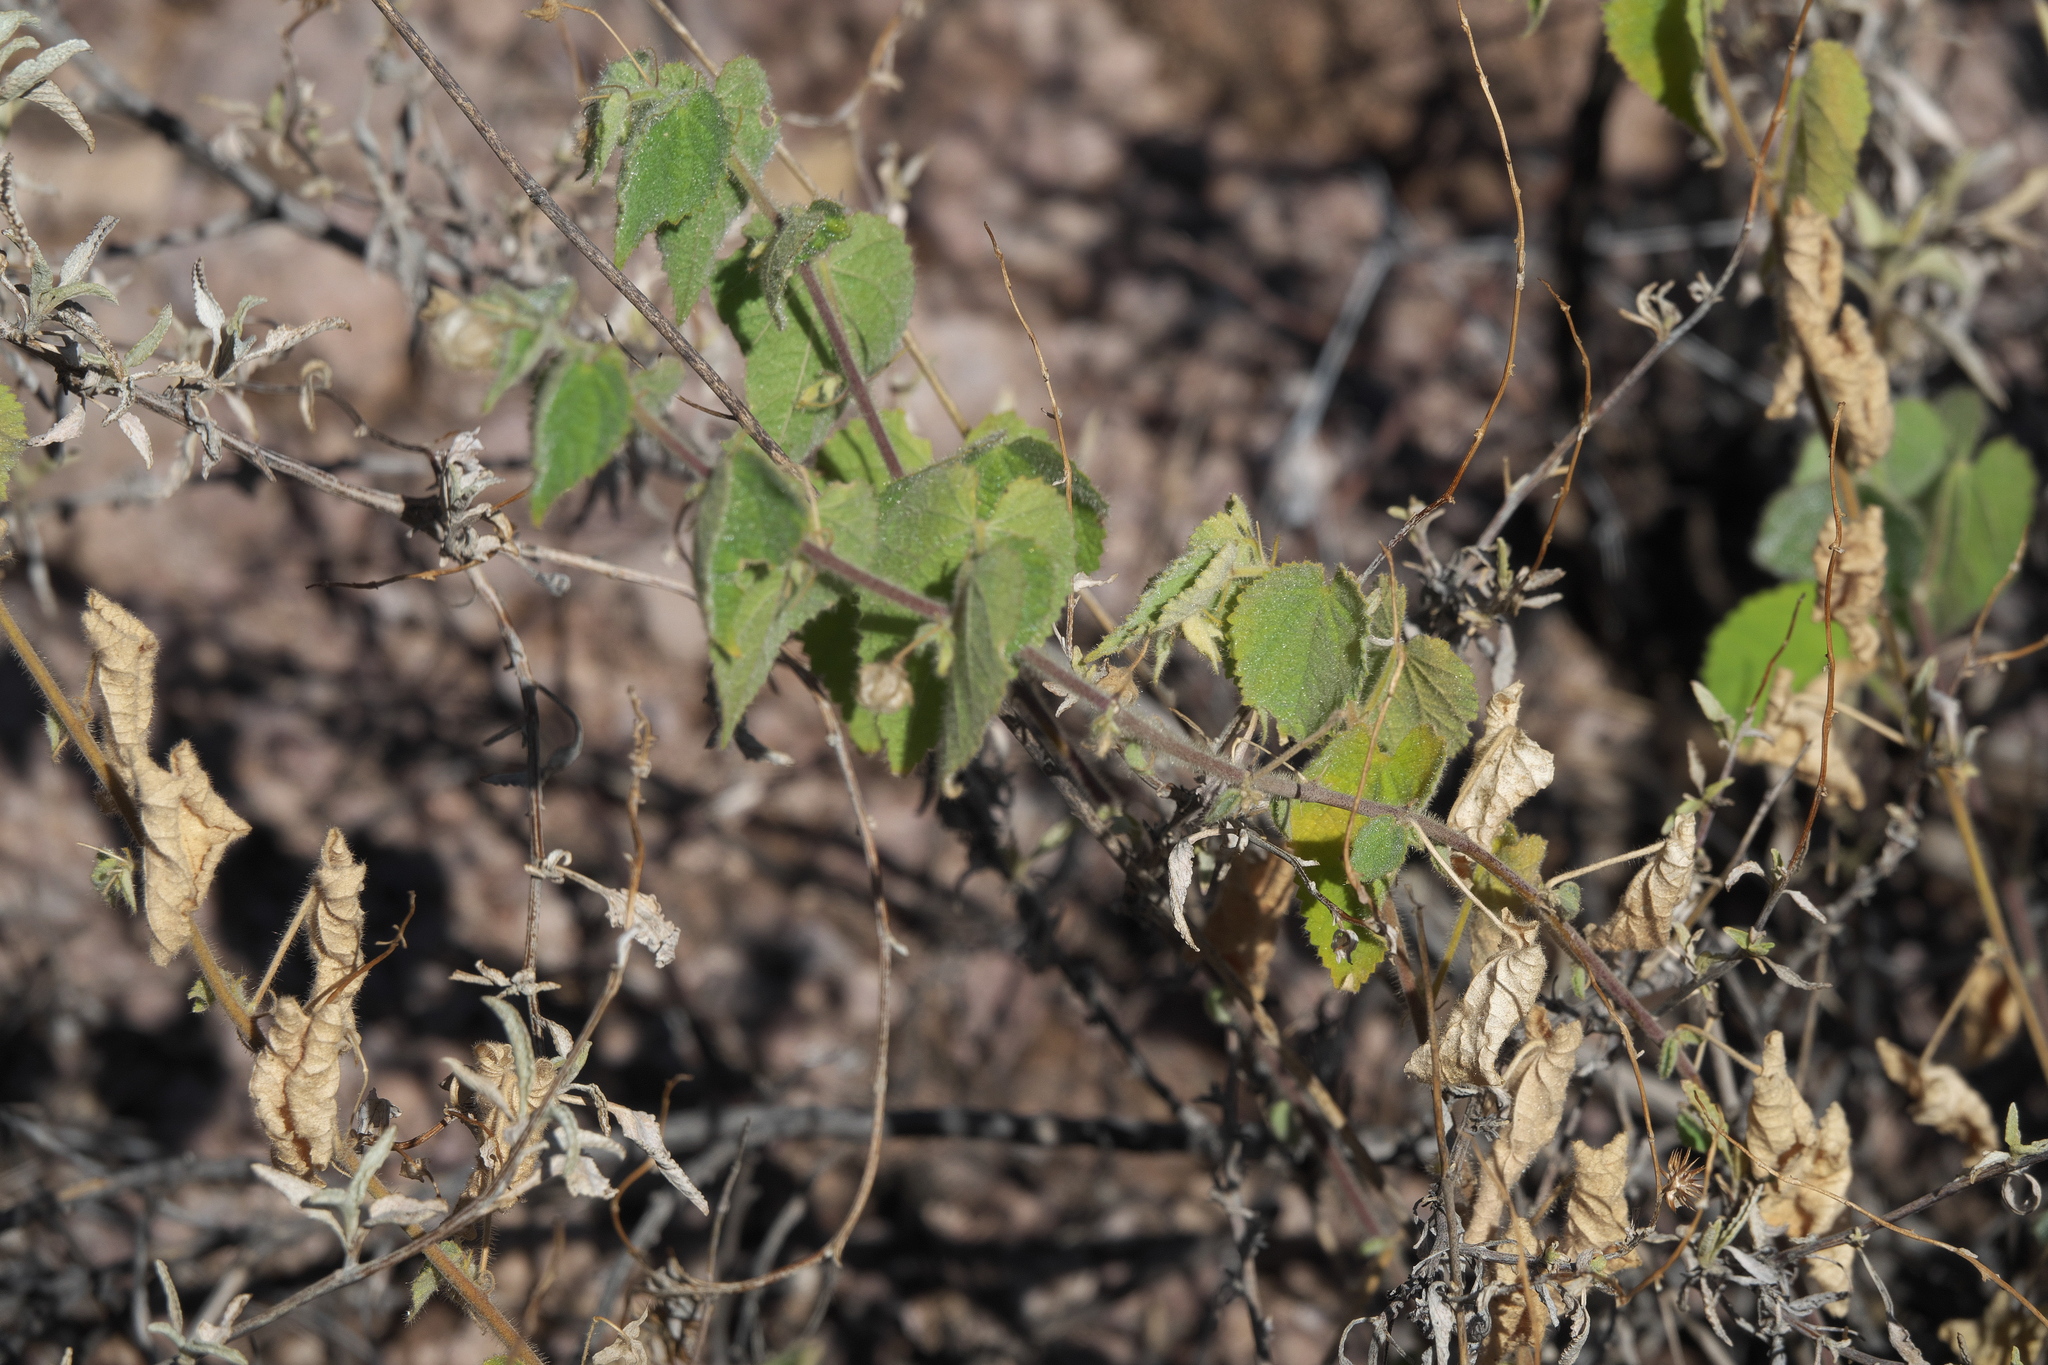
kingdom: Plantae
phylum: Tracheophyta
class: Magnoliopsida
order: Malvales
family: Malvaceae
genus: Herissantia
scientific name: Herissantia crispa
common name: Bladdermallow
